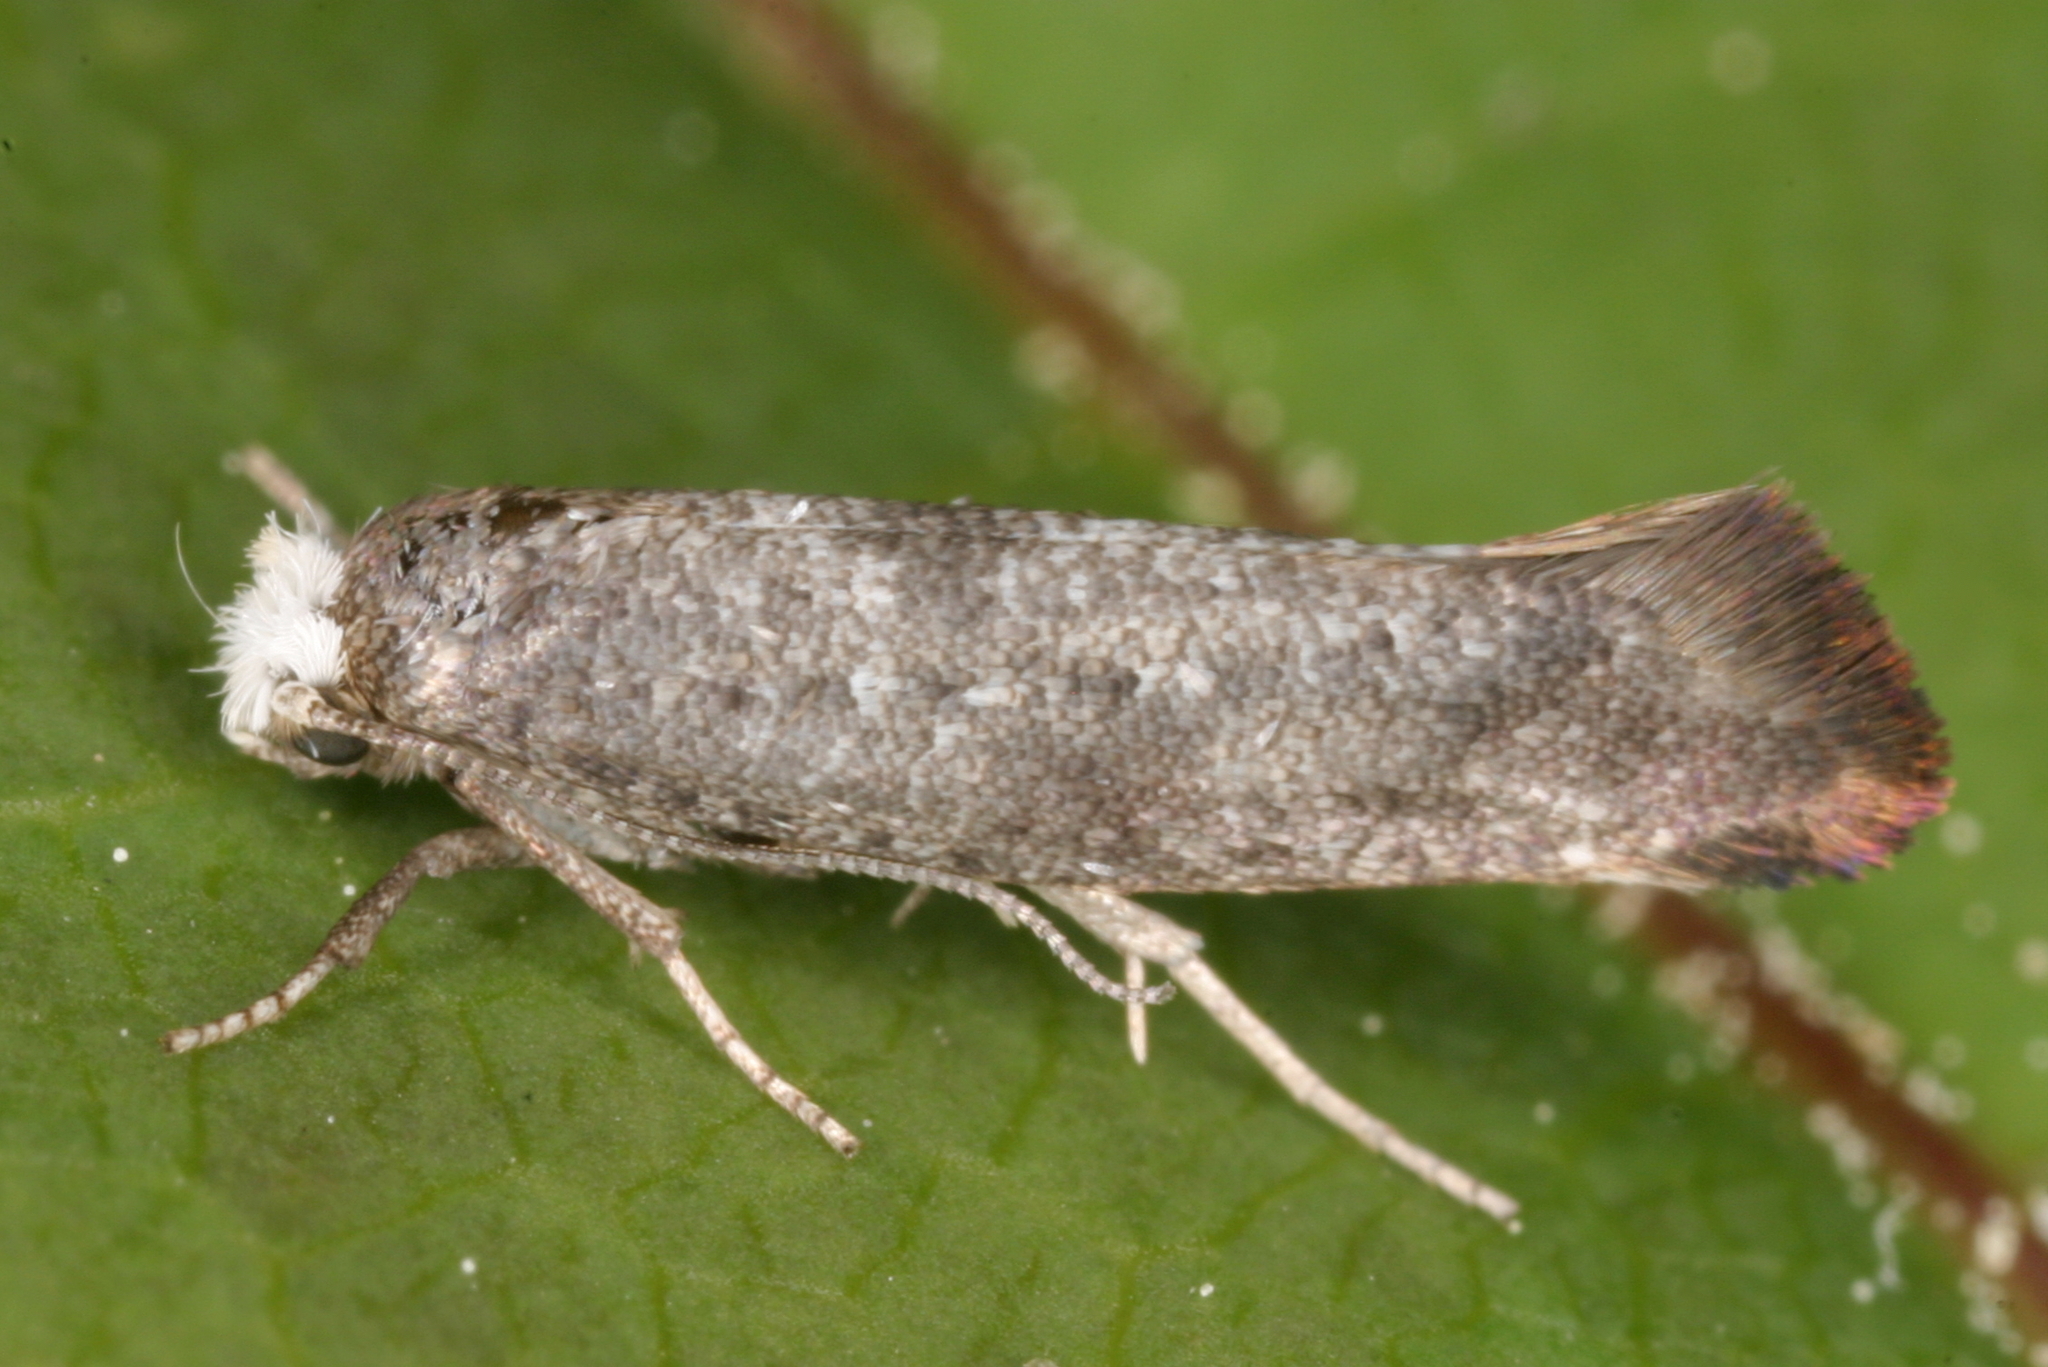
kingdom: Animalia
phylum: Arthropoda
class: Insecta
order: Lepidoptera
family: Yponomeutidae
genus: Swammerdamia
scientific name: Swammerdamia pyrella
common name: Little ermine moth
